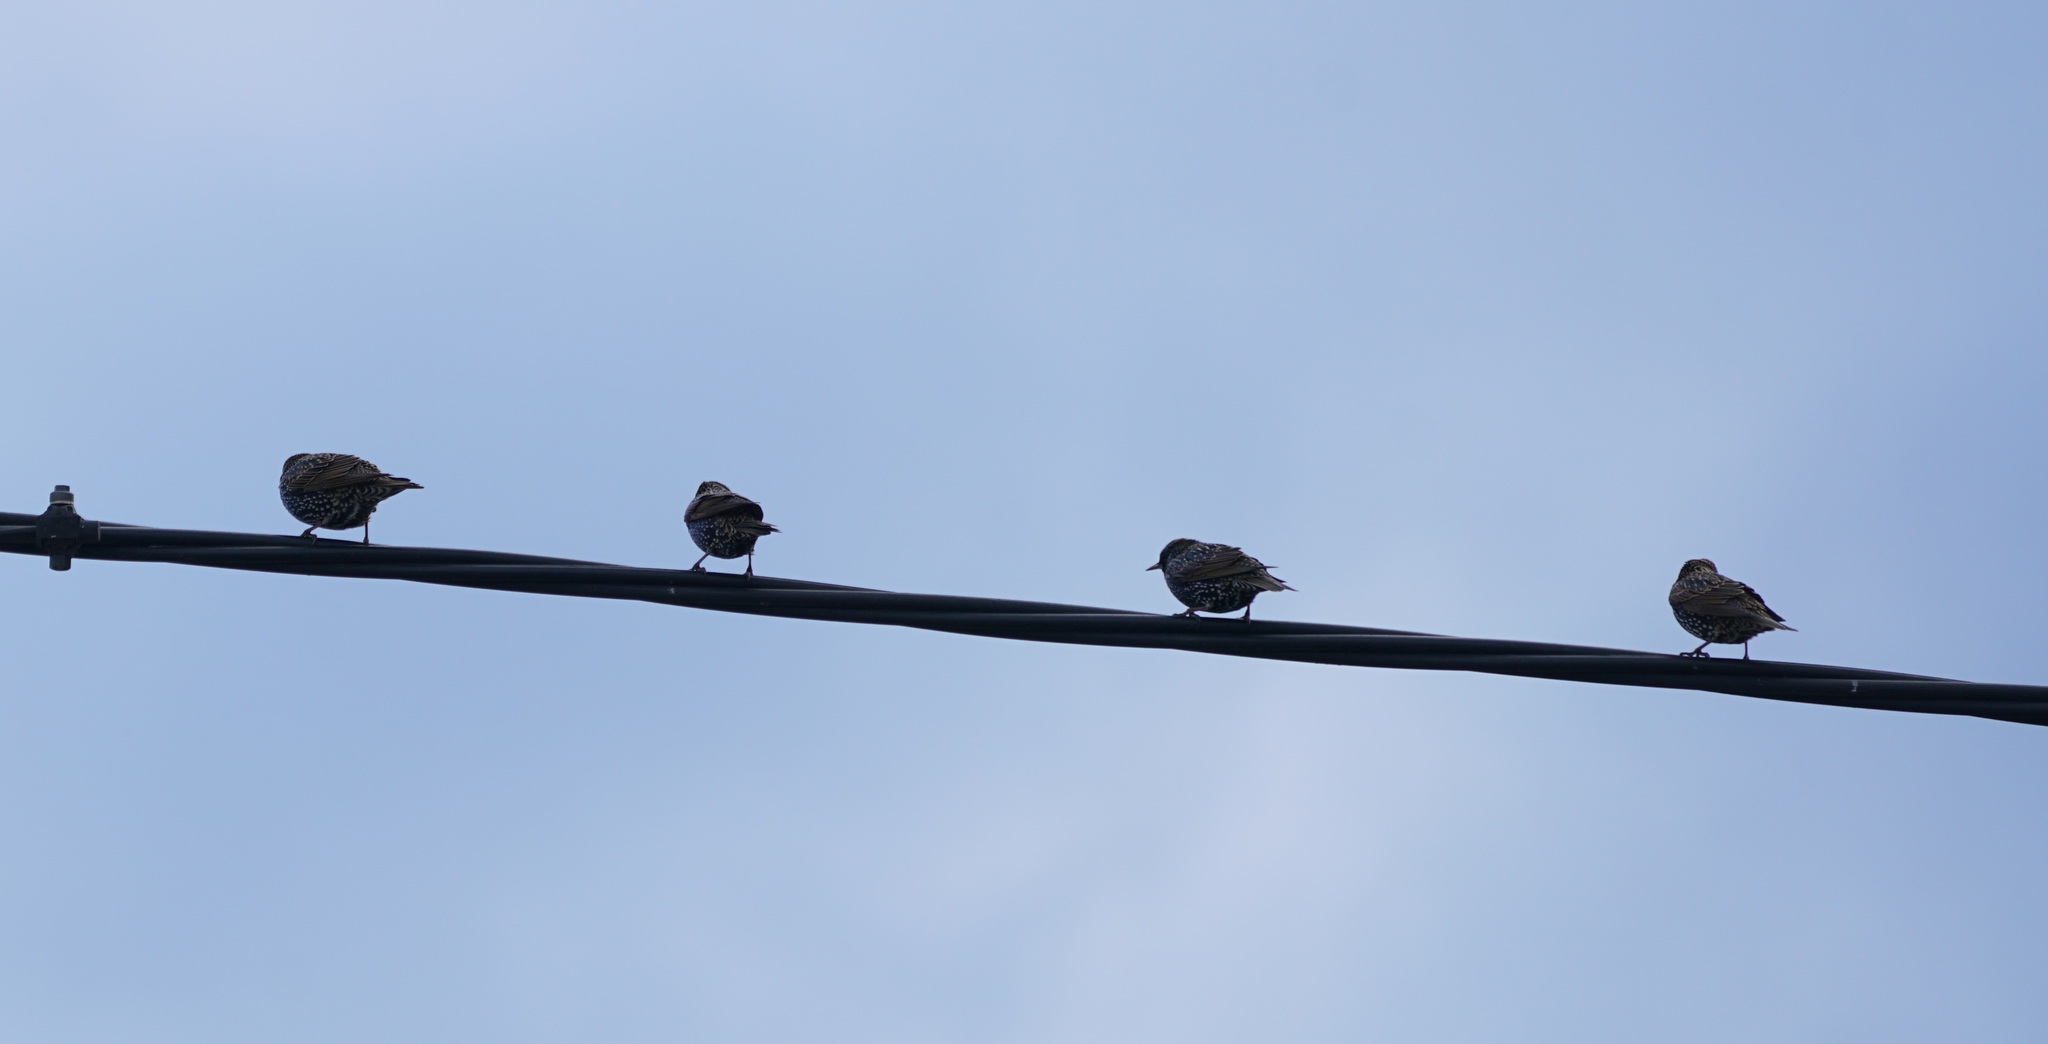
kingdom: Animalia
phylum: Chordata
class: Aves
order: Passeriformes
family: Sturnidae
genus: Sturnus
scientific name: Sturnus vulgaris
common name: Common starling
